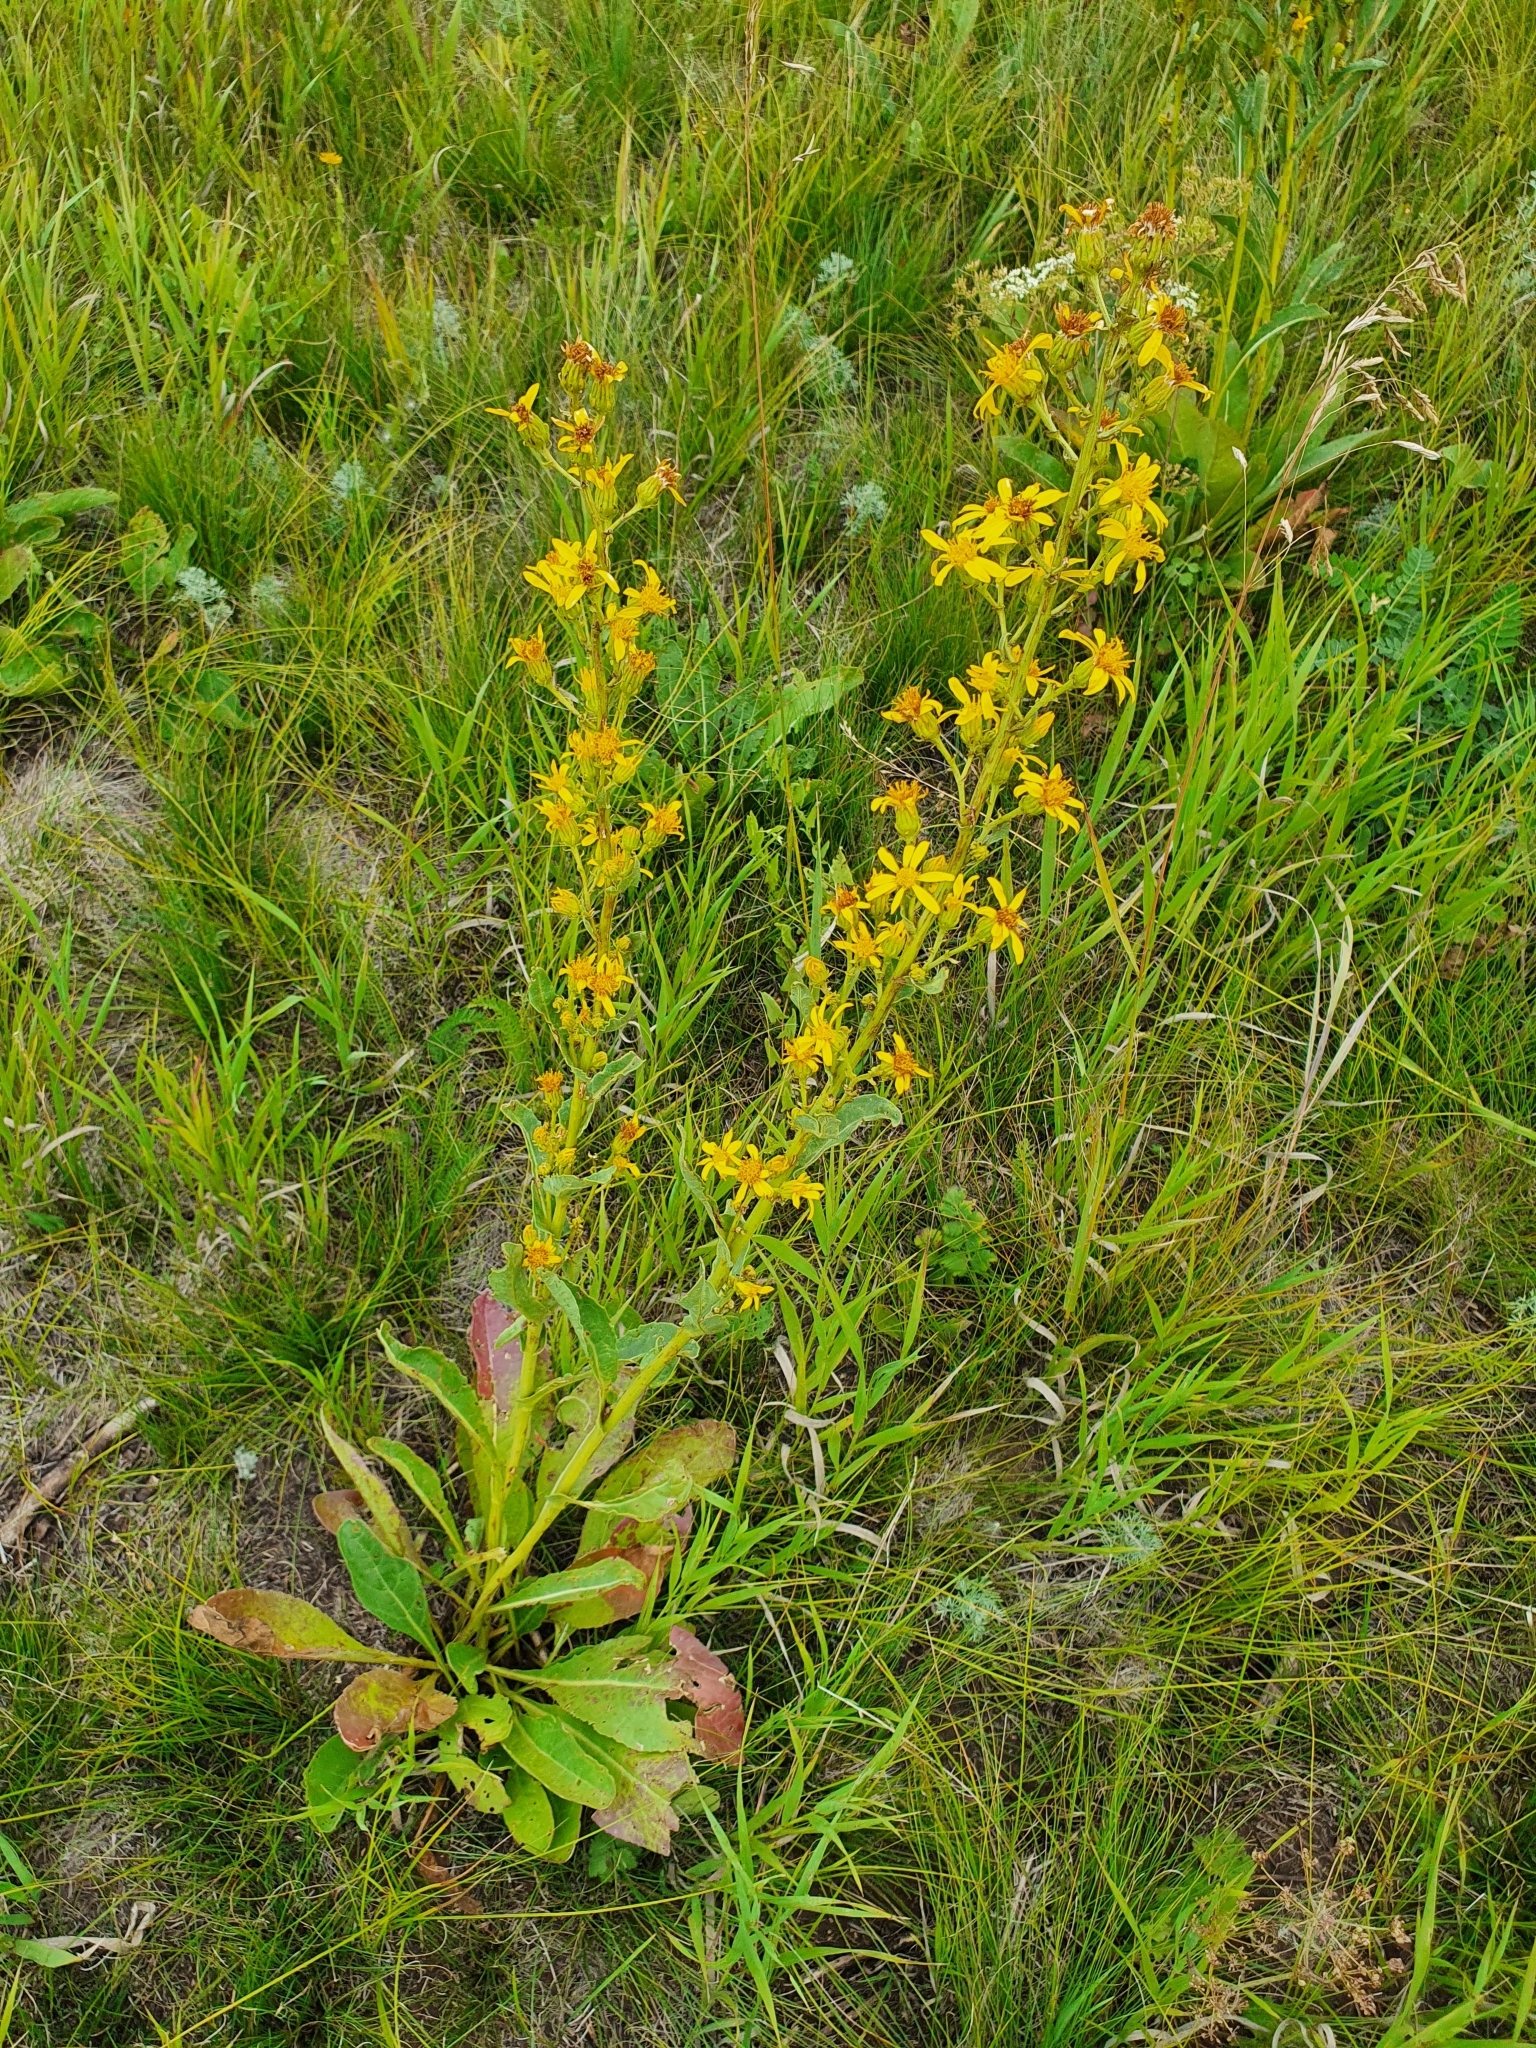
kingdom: Plantae
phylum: Tracheophyta
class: Magnoliopsida
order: Asterales
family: Asteraceae
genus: Jacobaea
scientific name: Jacobaea racemosa
